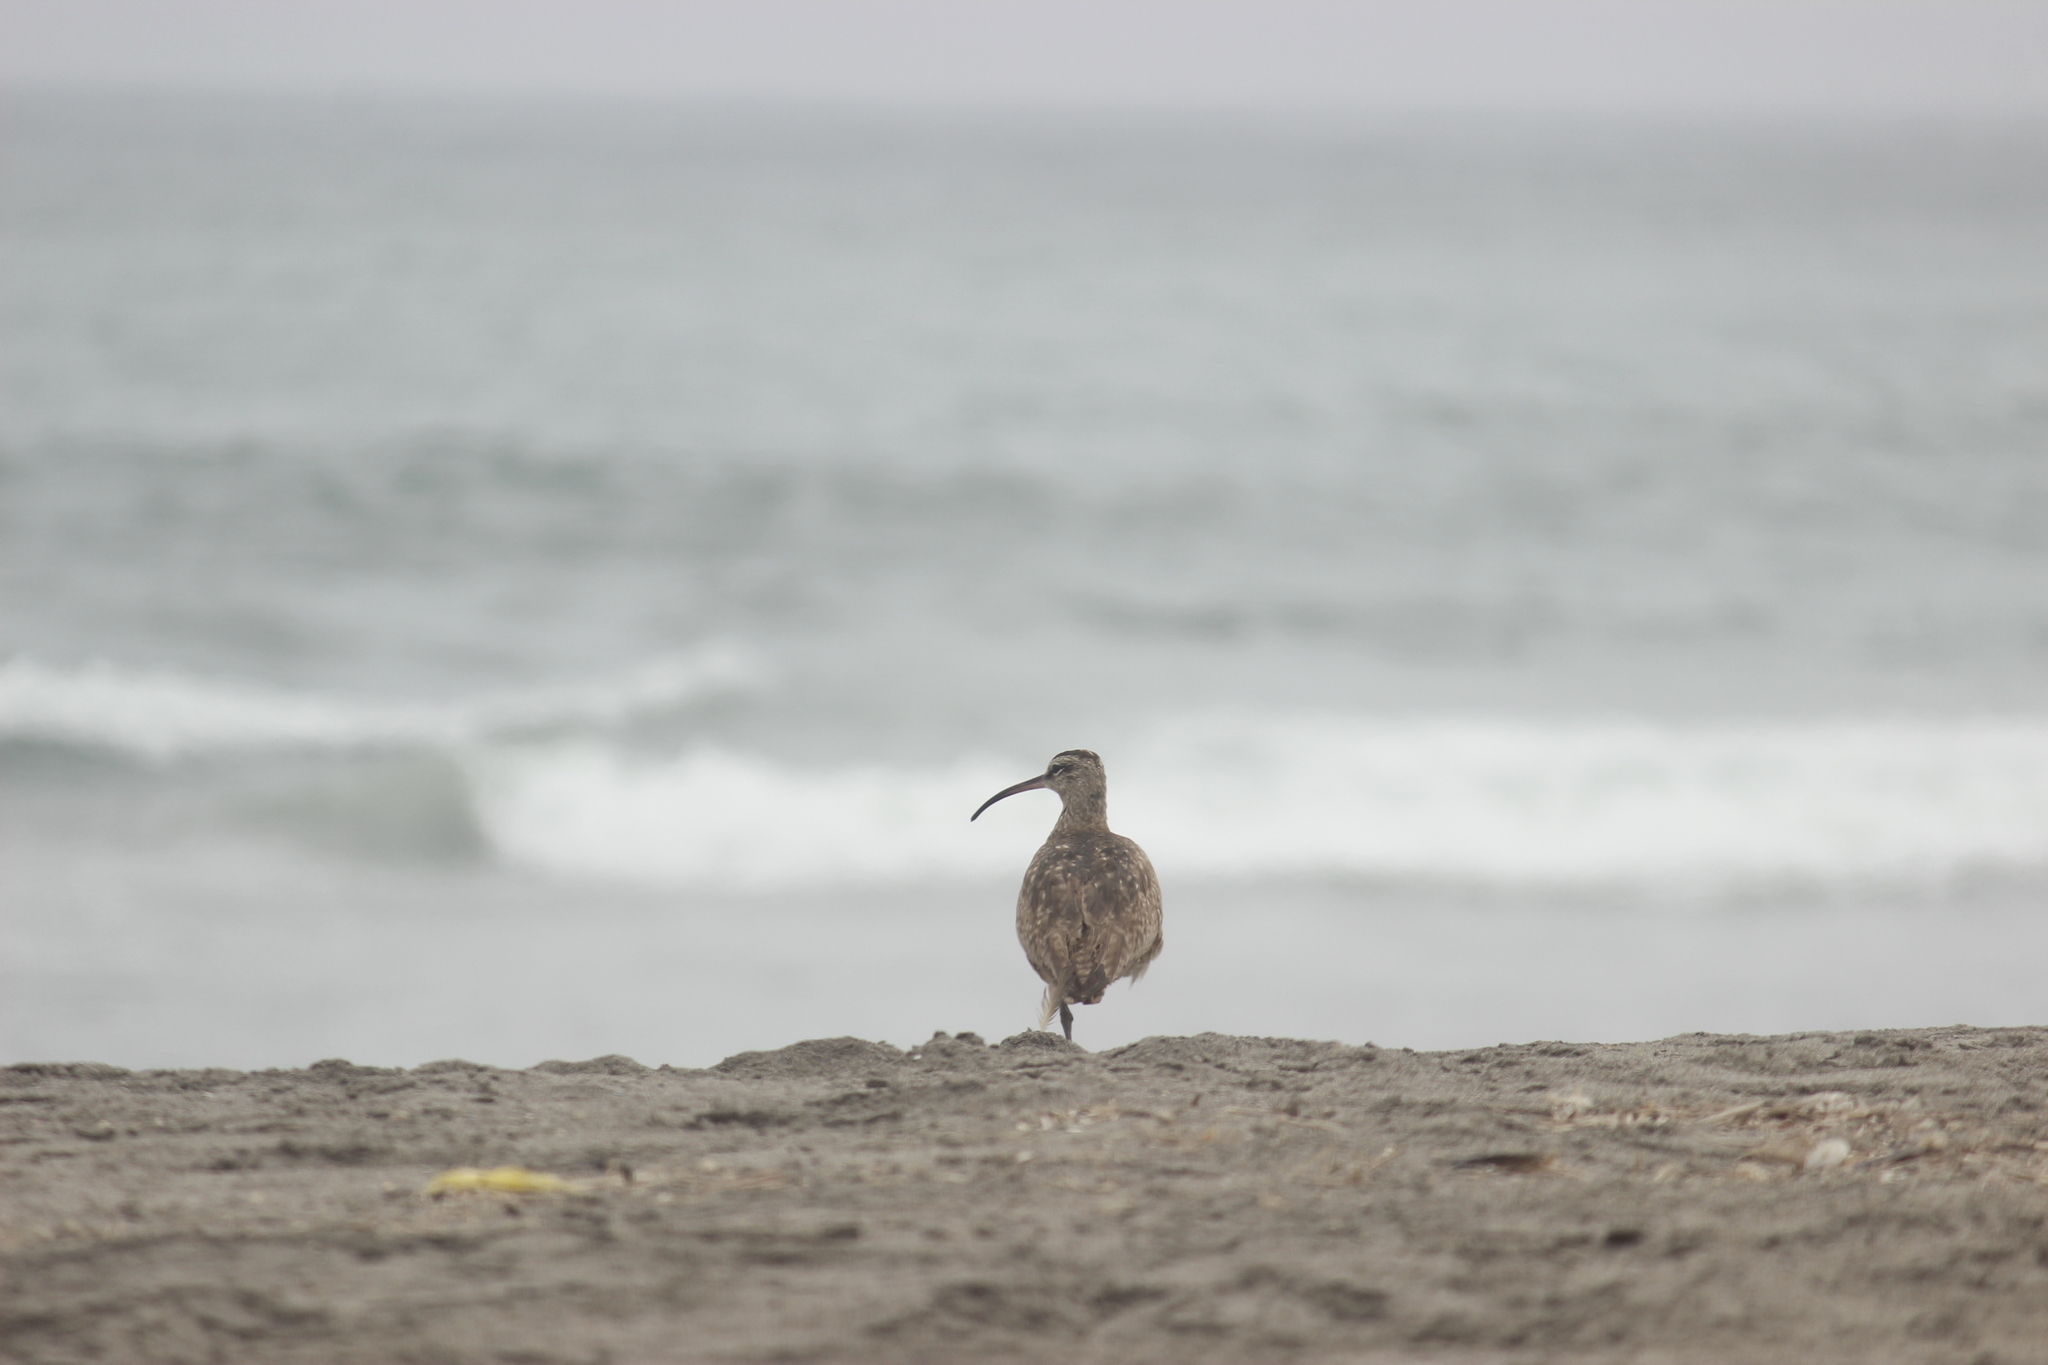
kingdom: Animalia
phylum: Chordata
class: Aves
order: Charadriiformes
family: Scolopacidae
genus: Numenius
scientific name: Numenius phaeopus
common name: Whimbrel
